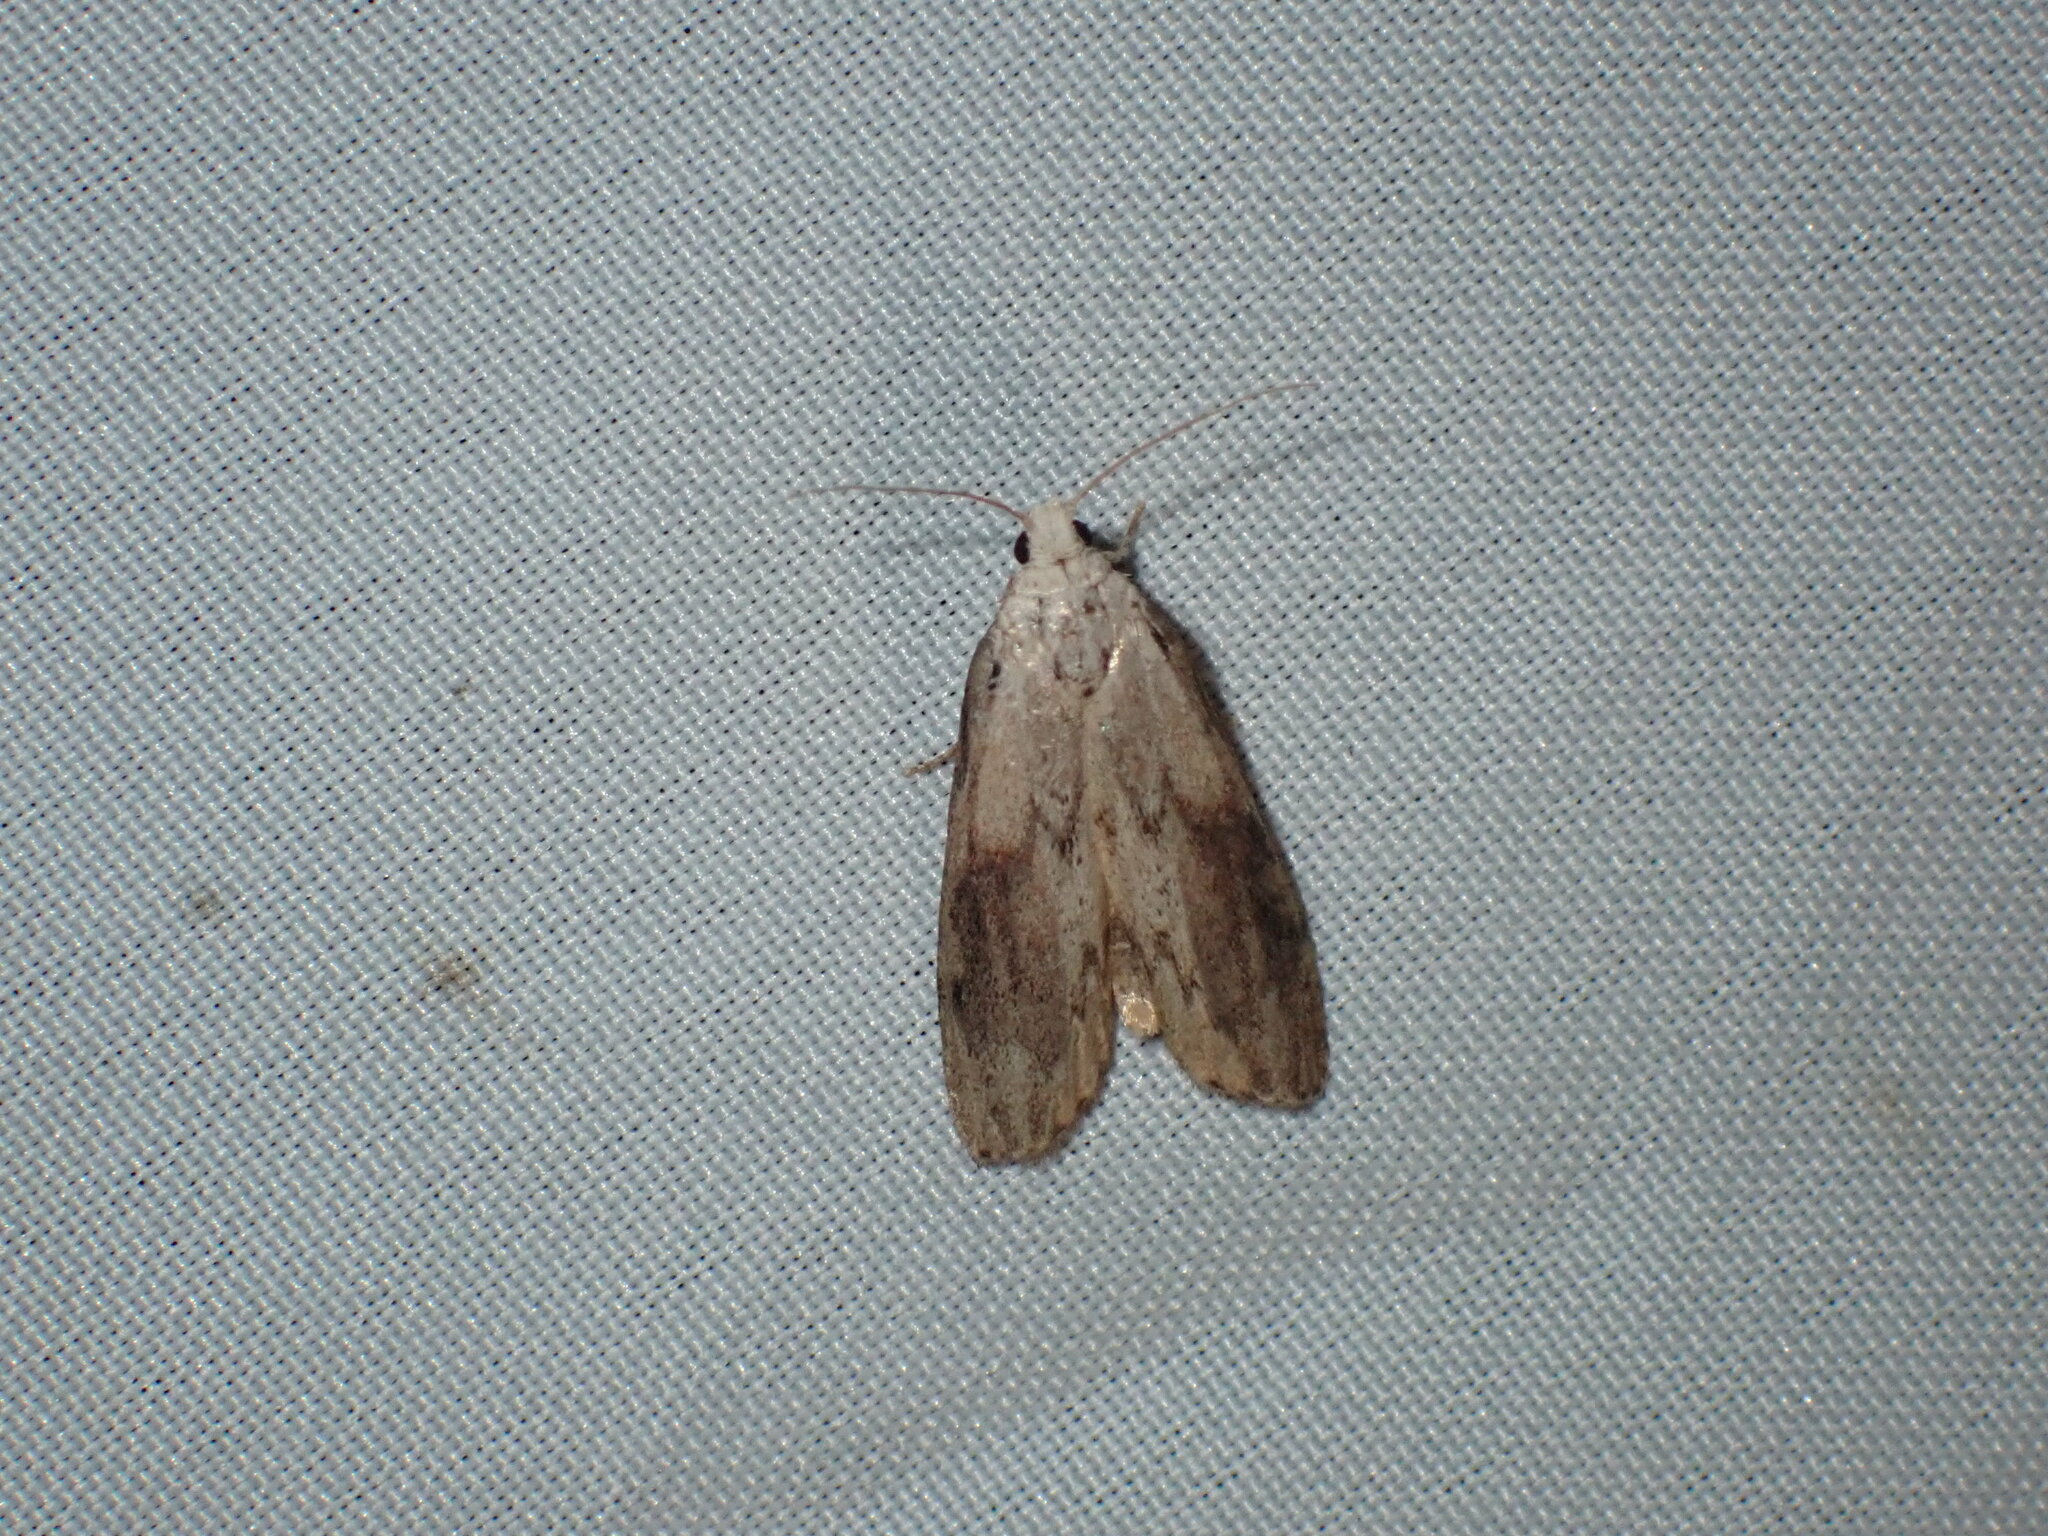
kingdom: Animalia
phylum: Arthropoda
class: Insecta
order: Lepidoptera
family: Pyralidae
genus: Aphomia
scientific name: Aphomia sociella
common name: Bee moth
